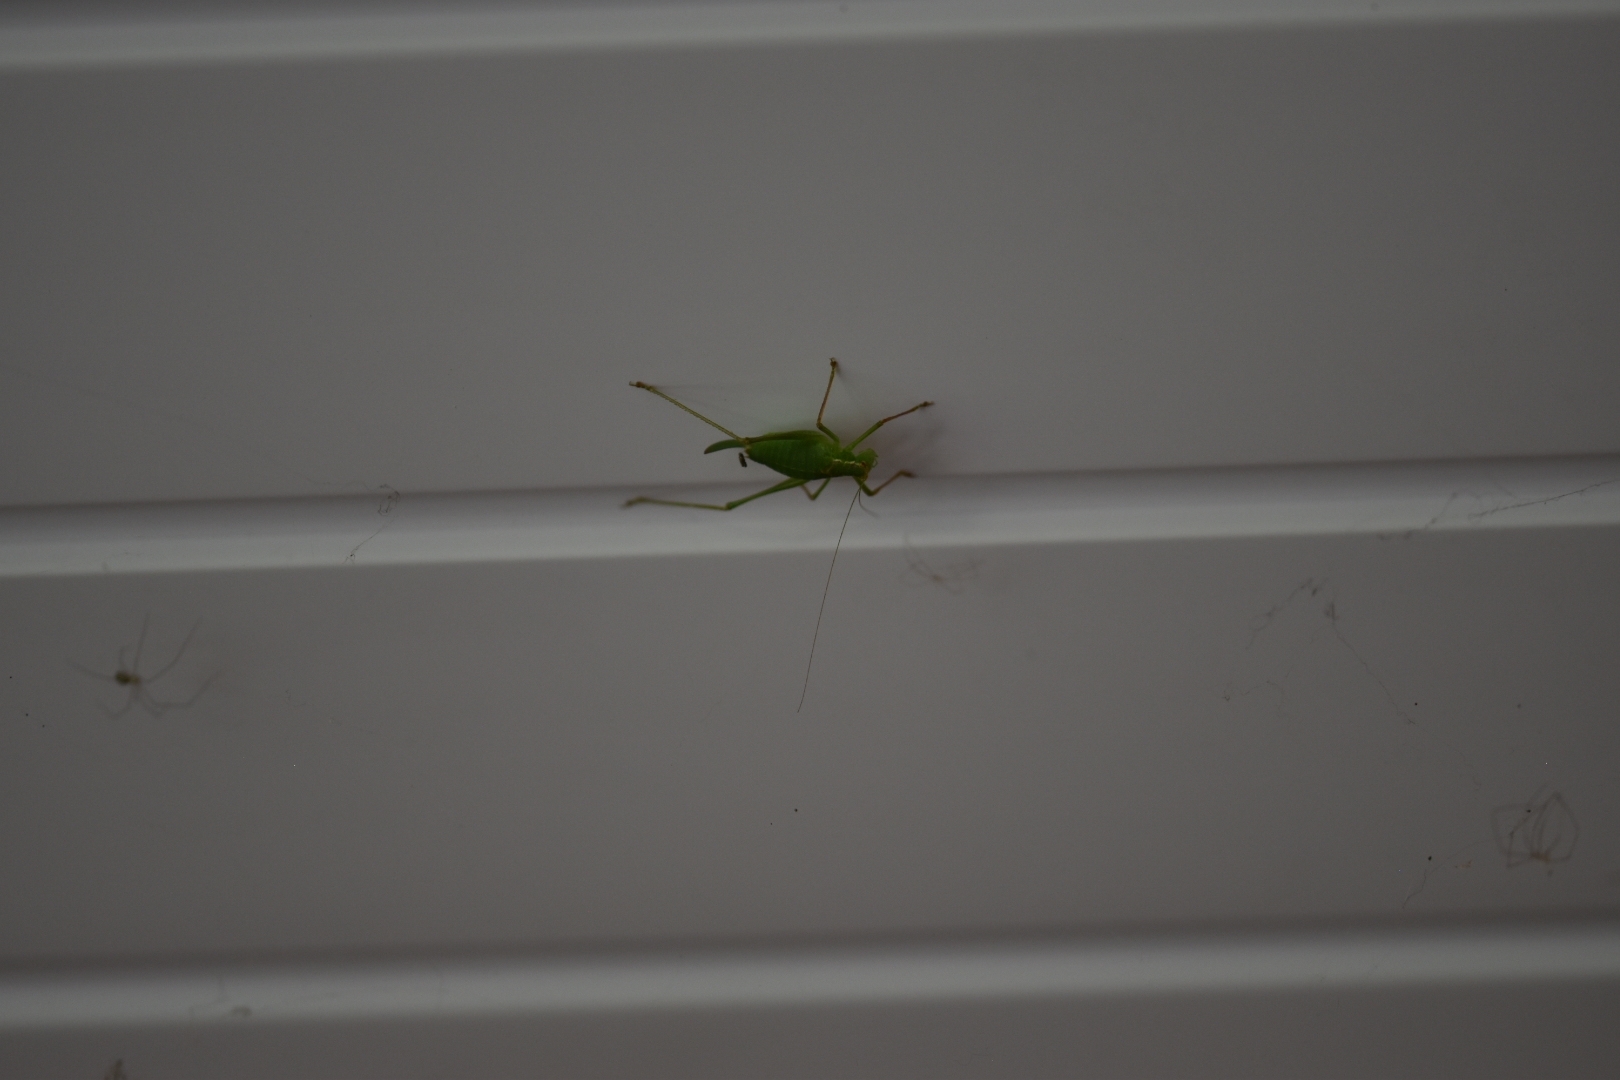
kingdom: Animalia
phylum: Arthropoda
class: Insecta
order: Orthoptera
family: Tettigoniidae
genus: Leptophyes
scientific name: Leptophyes punctatissima
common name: Speckled bush-cricket
